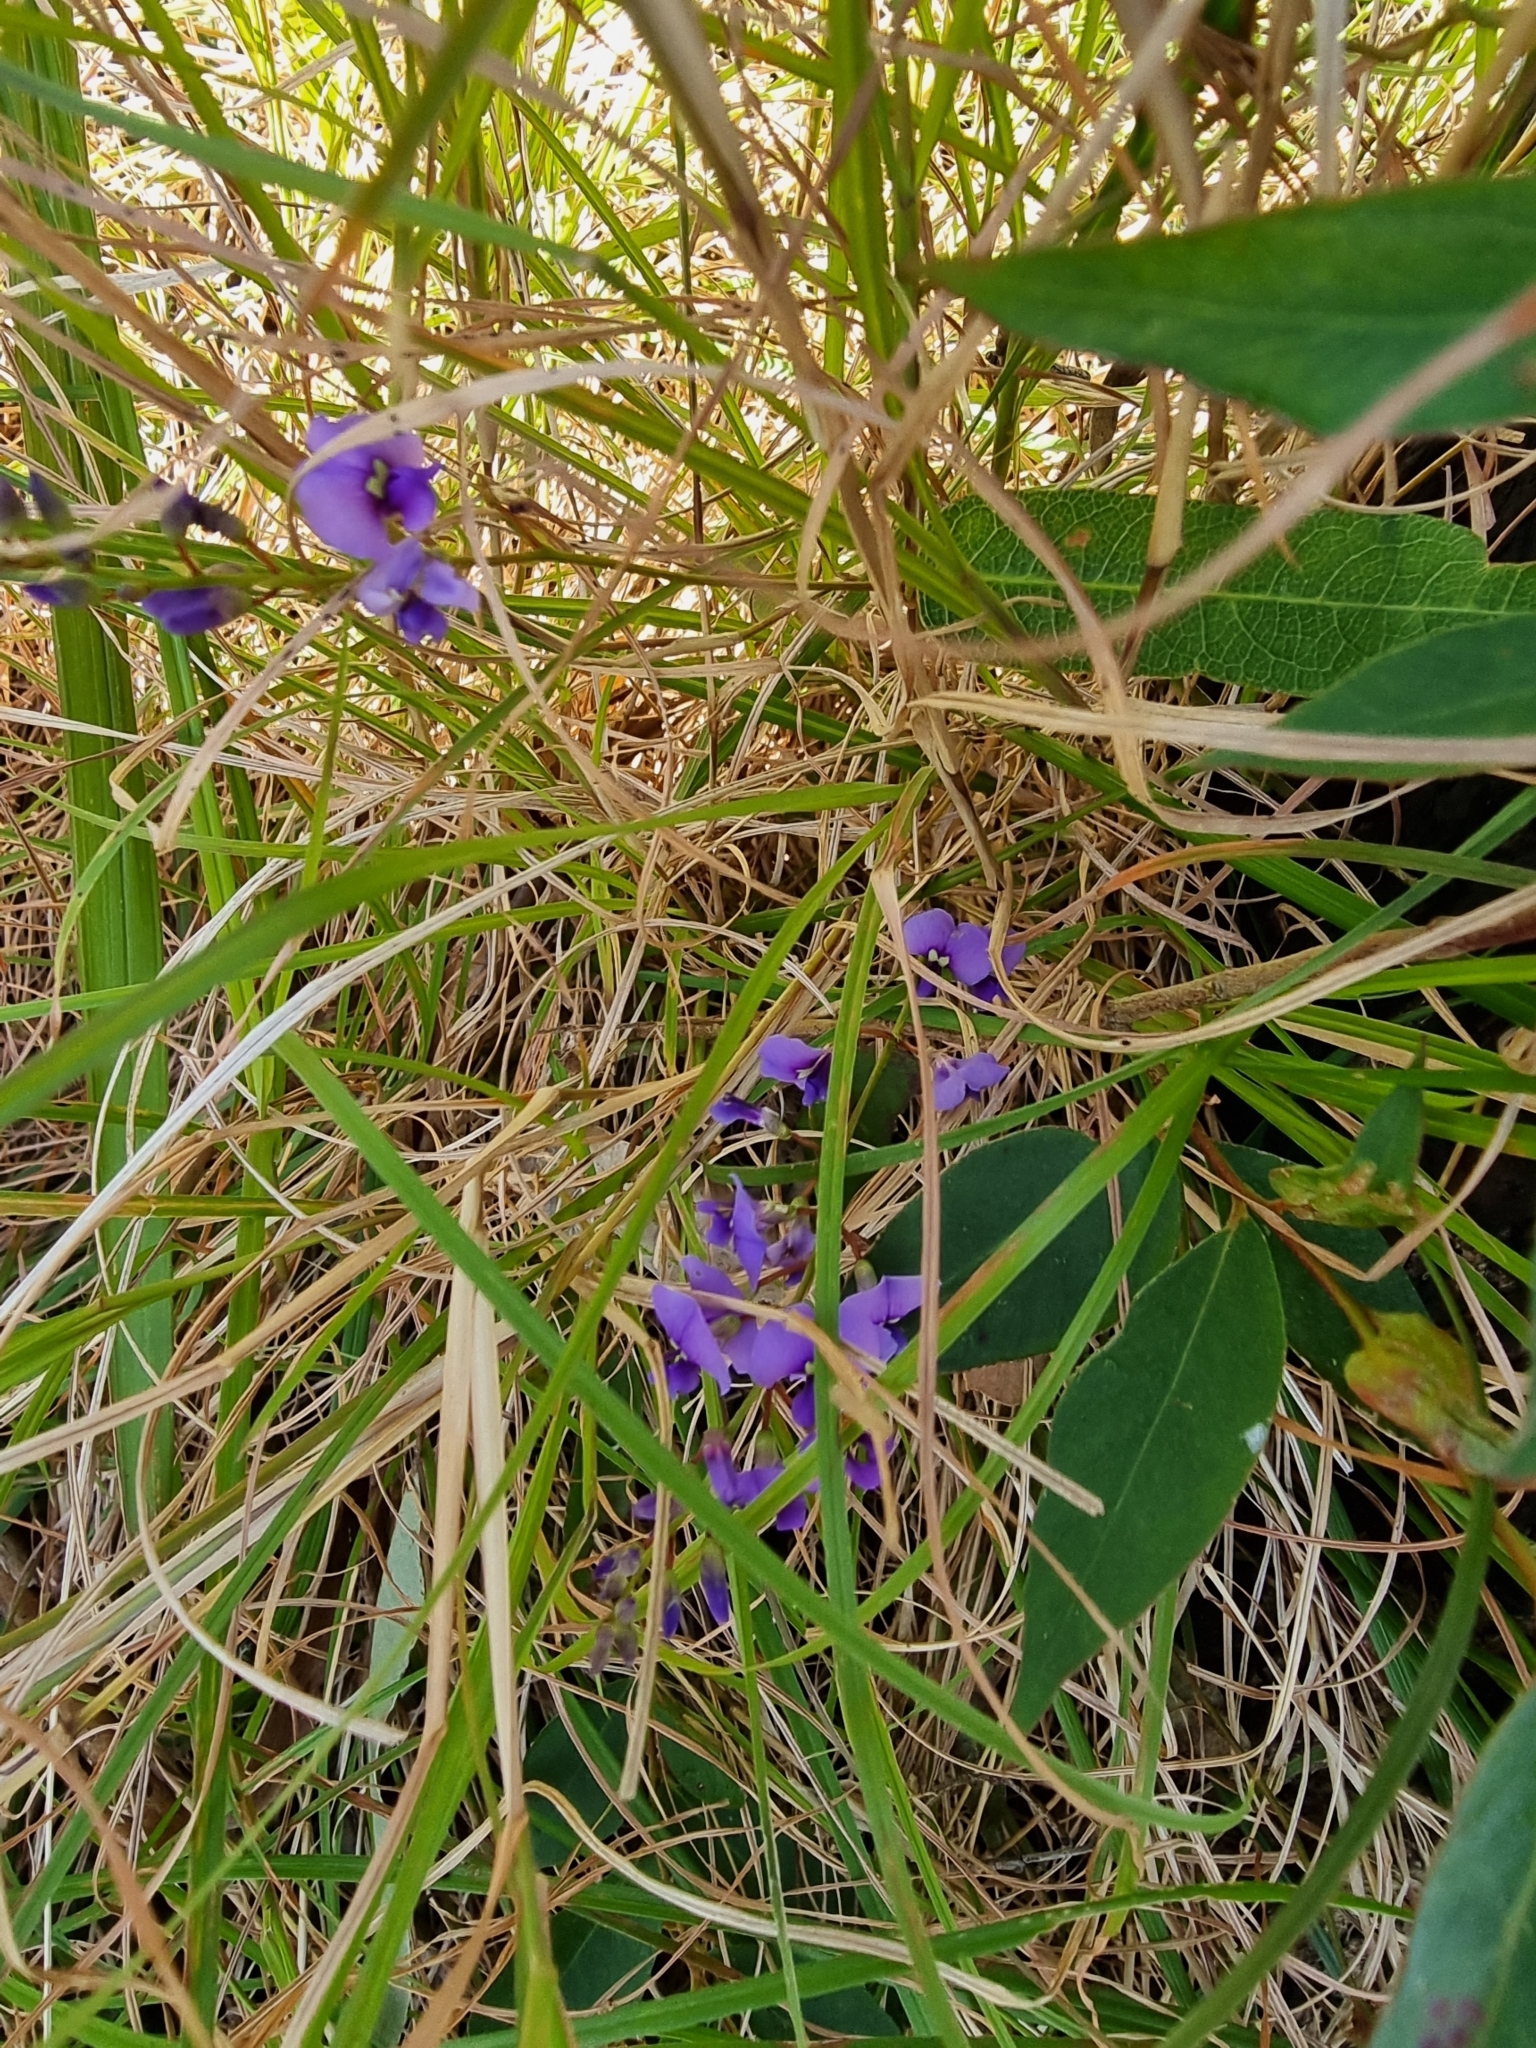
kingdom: Plantae
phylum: Tracheophyta
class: Magnoliopsida
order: Fabales
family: Fabaceae
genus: Hardenbergia
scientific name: Hardenbergia violacea
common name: Coral-pea
